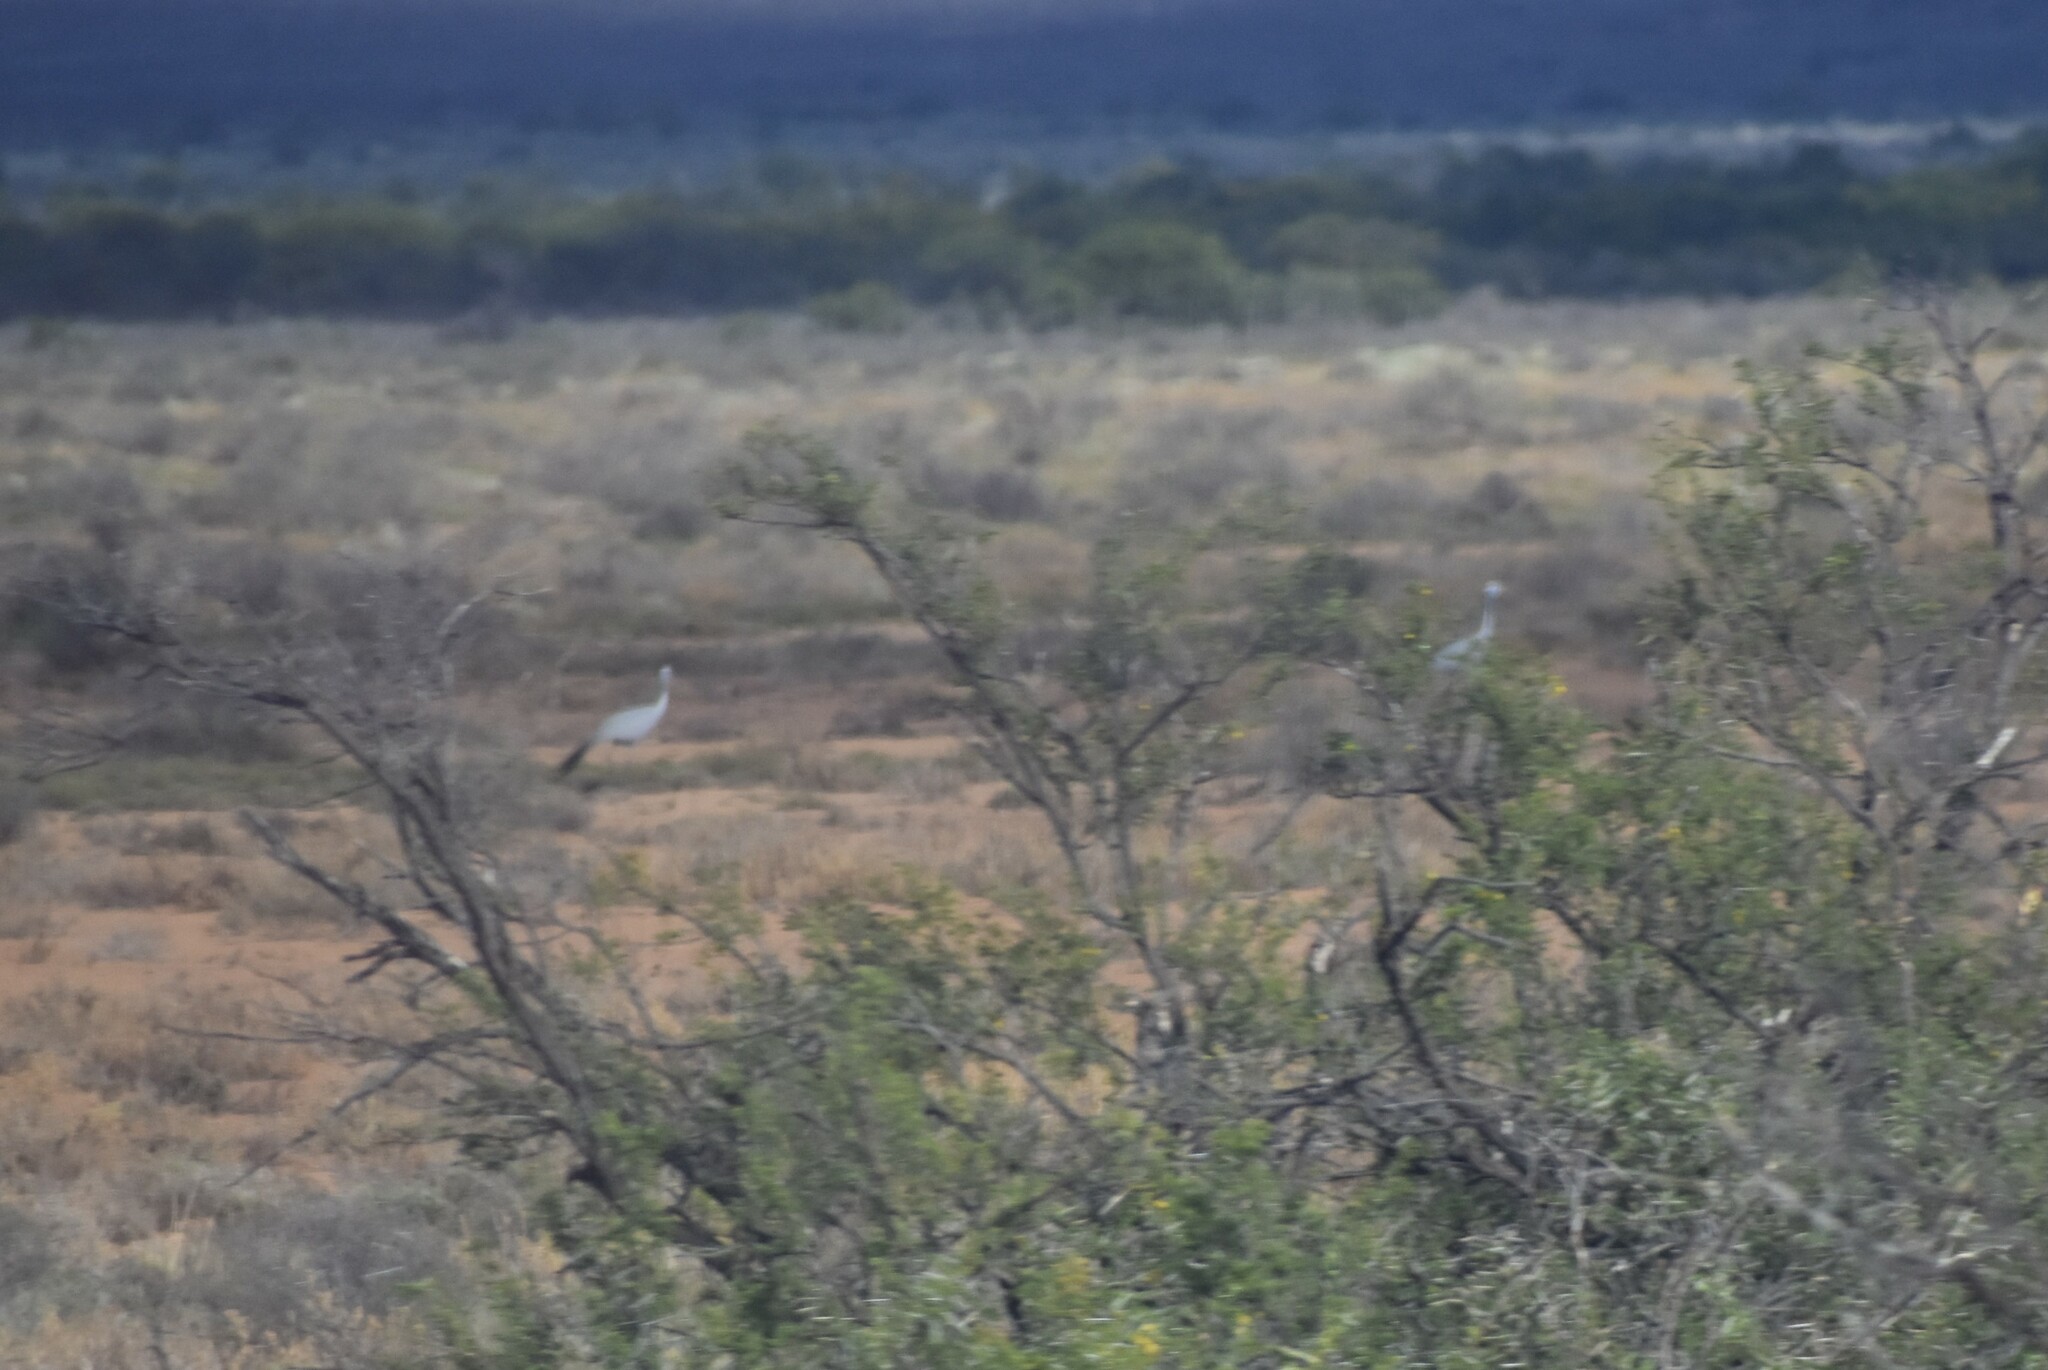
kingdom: Animalia
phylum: Chordata
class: Aves
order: Gruiformes
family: Gruidae
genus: Anthropoides
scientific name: Anthropoides paradiseus
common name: Blue crane
